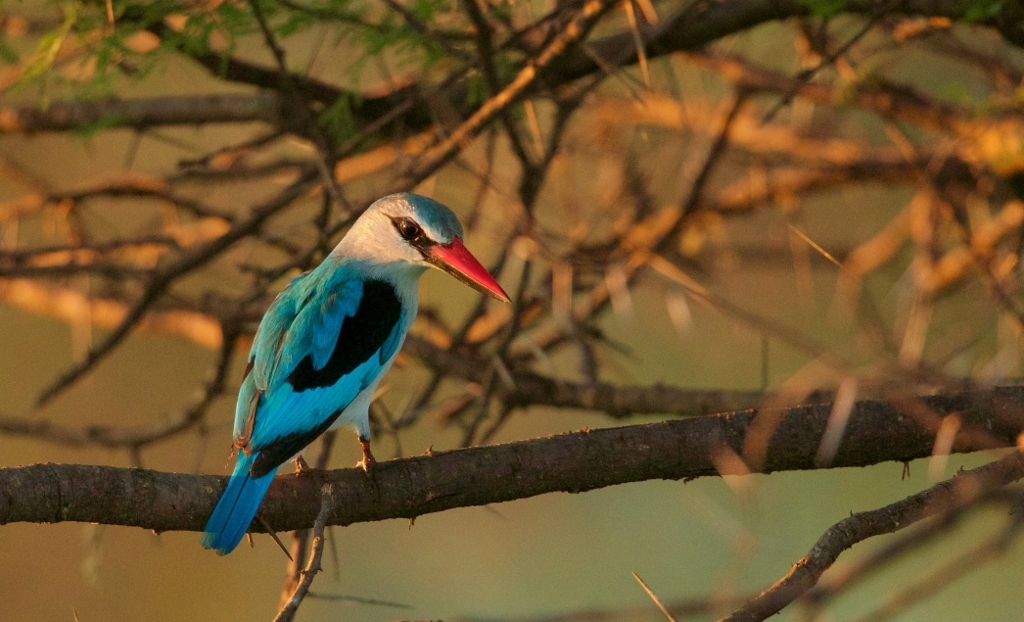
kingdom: Animalia
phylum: Chordata
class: Aves
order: Coraciiformes
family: Alcedinidae
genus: Halcyon
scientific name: Halcyon senegalensis
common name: Woodland kingfisher
